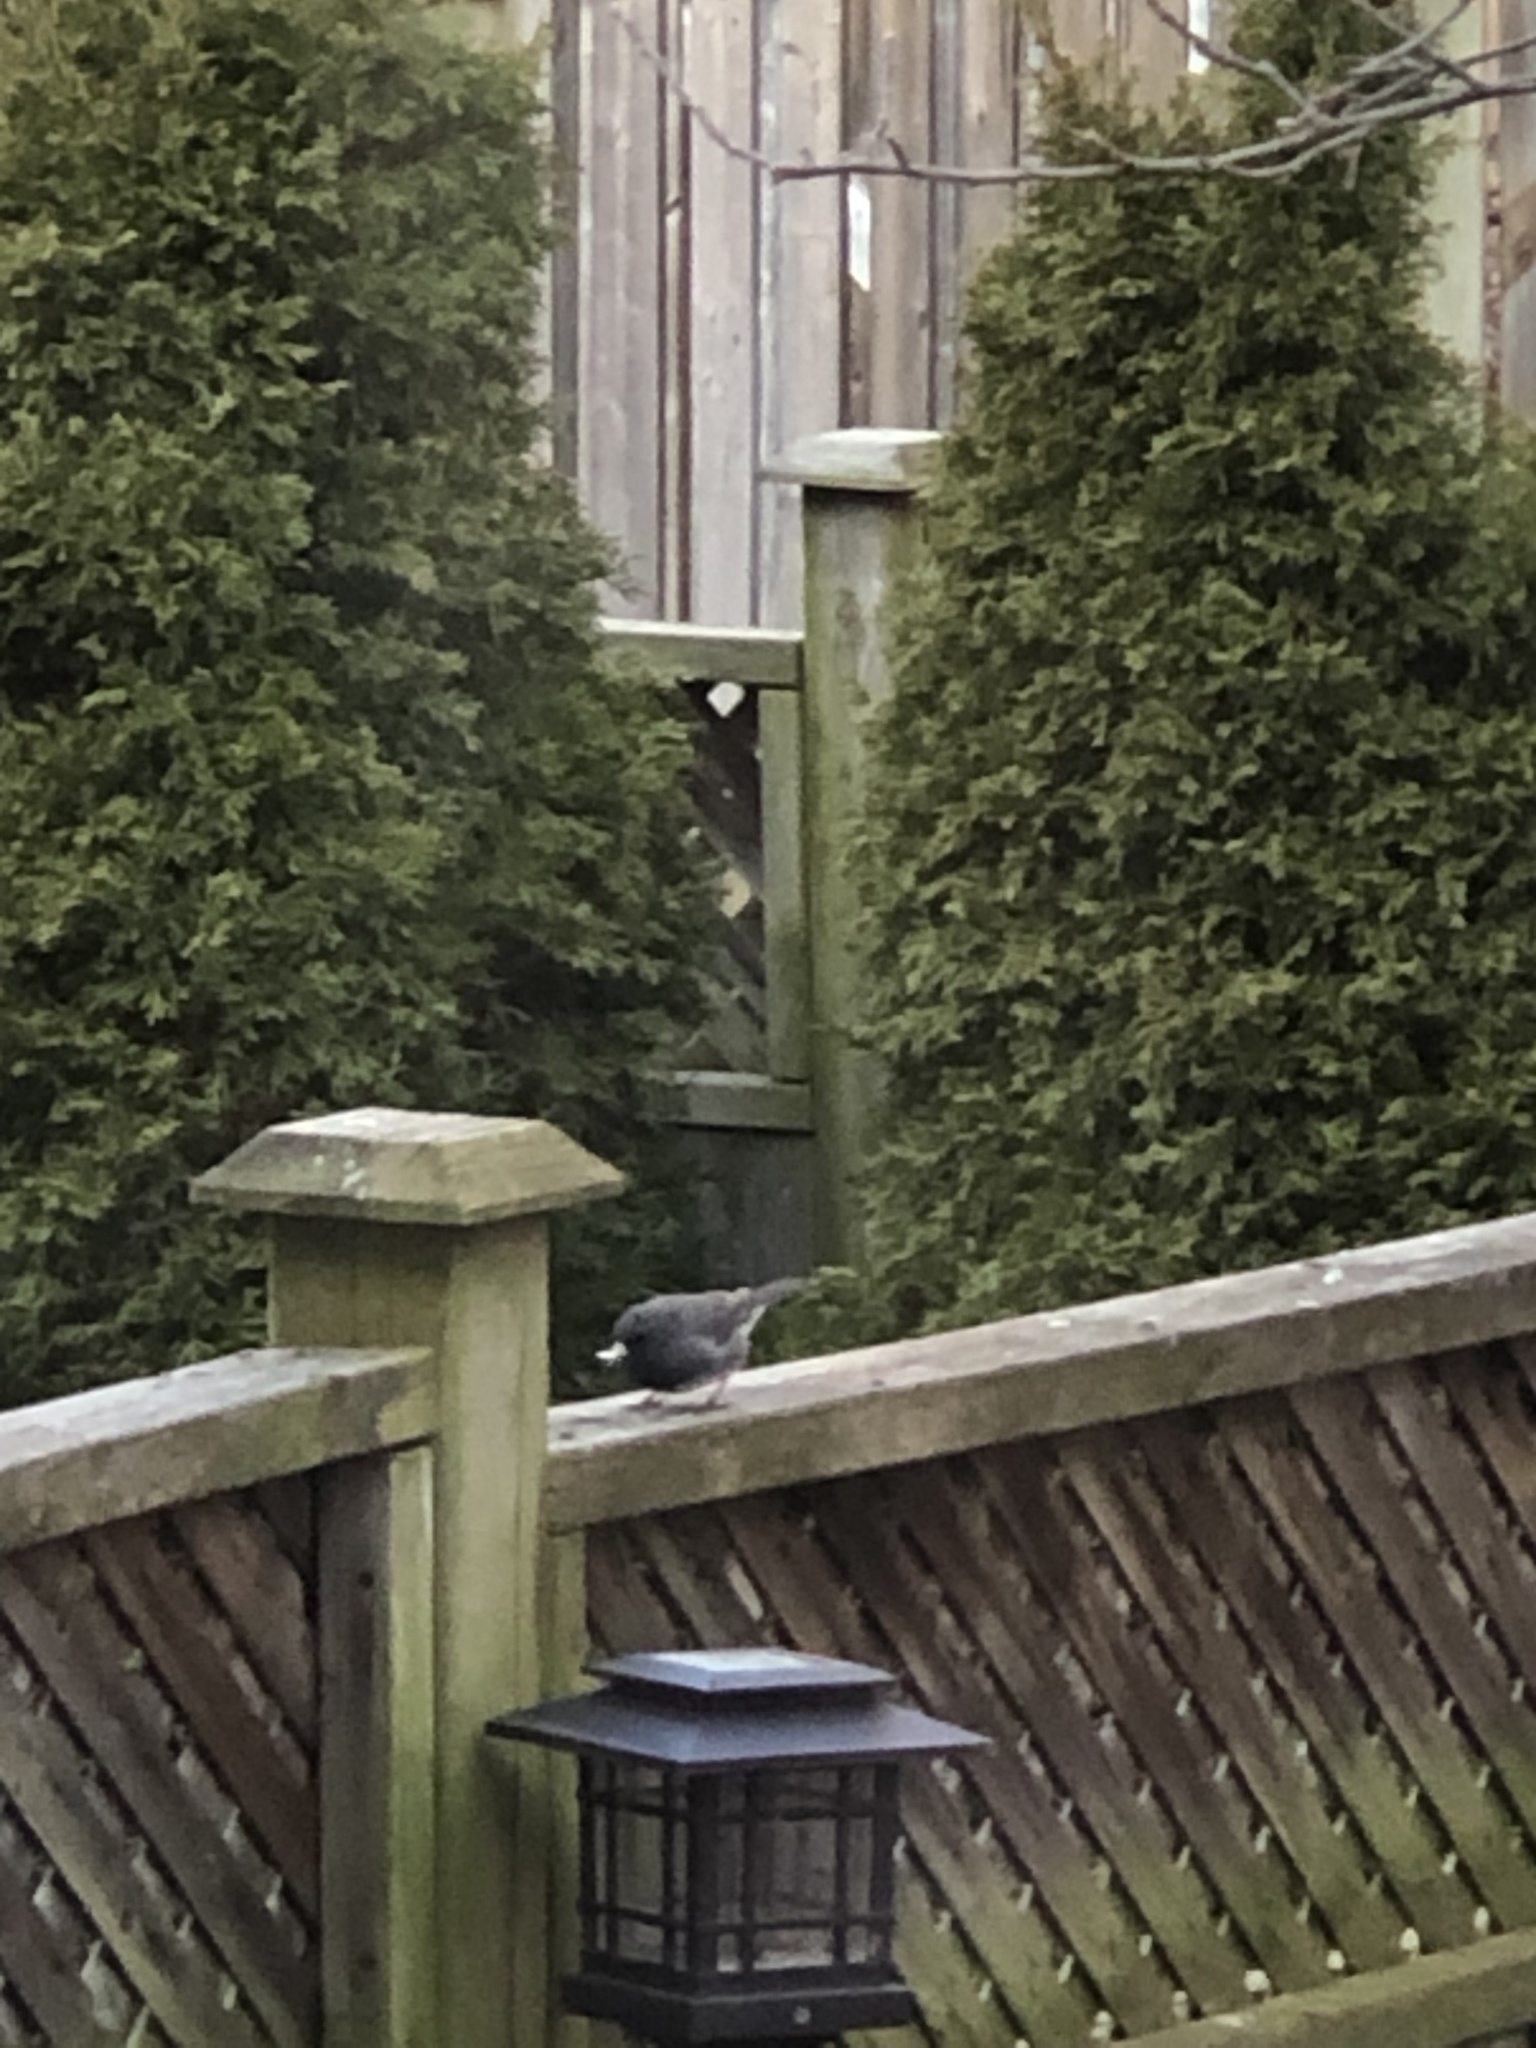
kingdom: Animalia
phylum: Chordata
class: Aves
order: Passeriformes
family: Passerellidae
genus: Junco
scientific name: Junco hyemalis
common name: Dark-eyed junco
